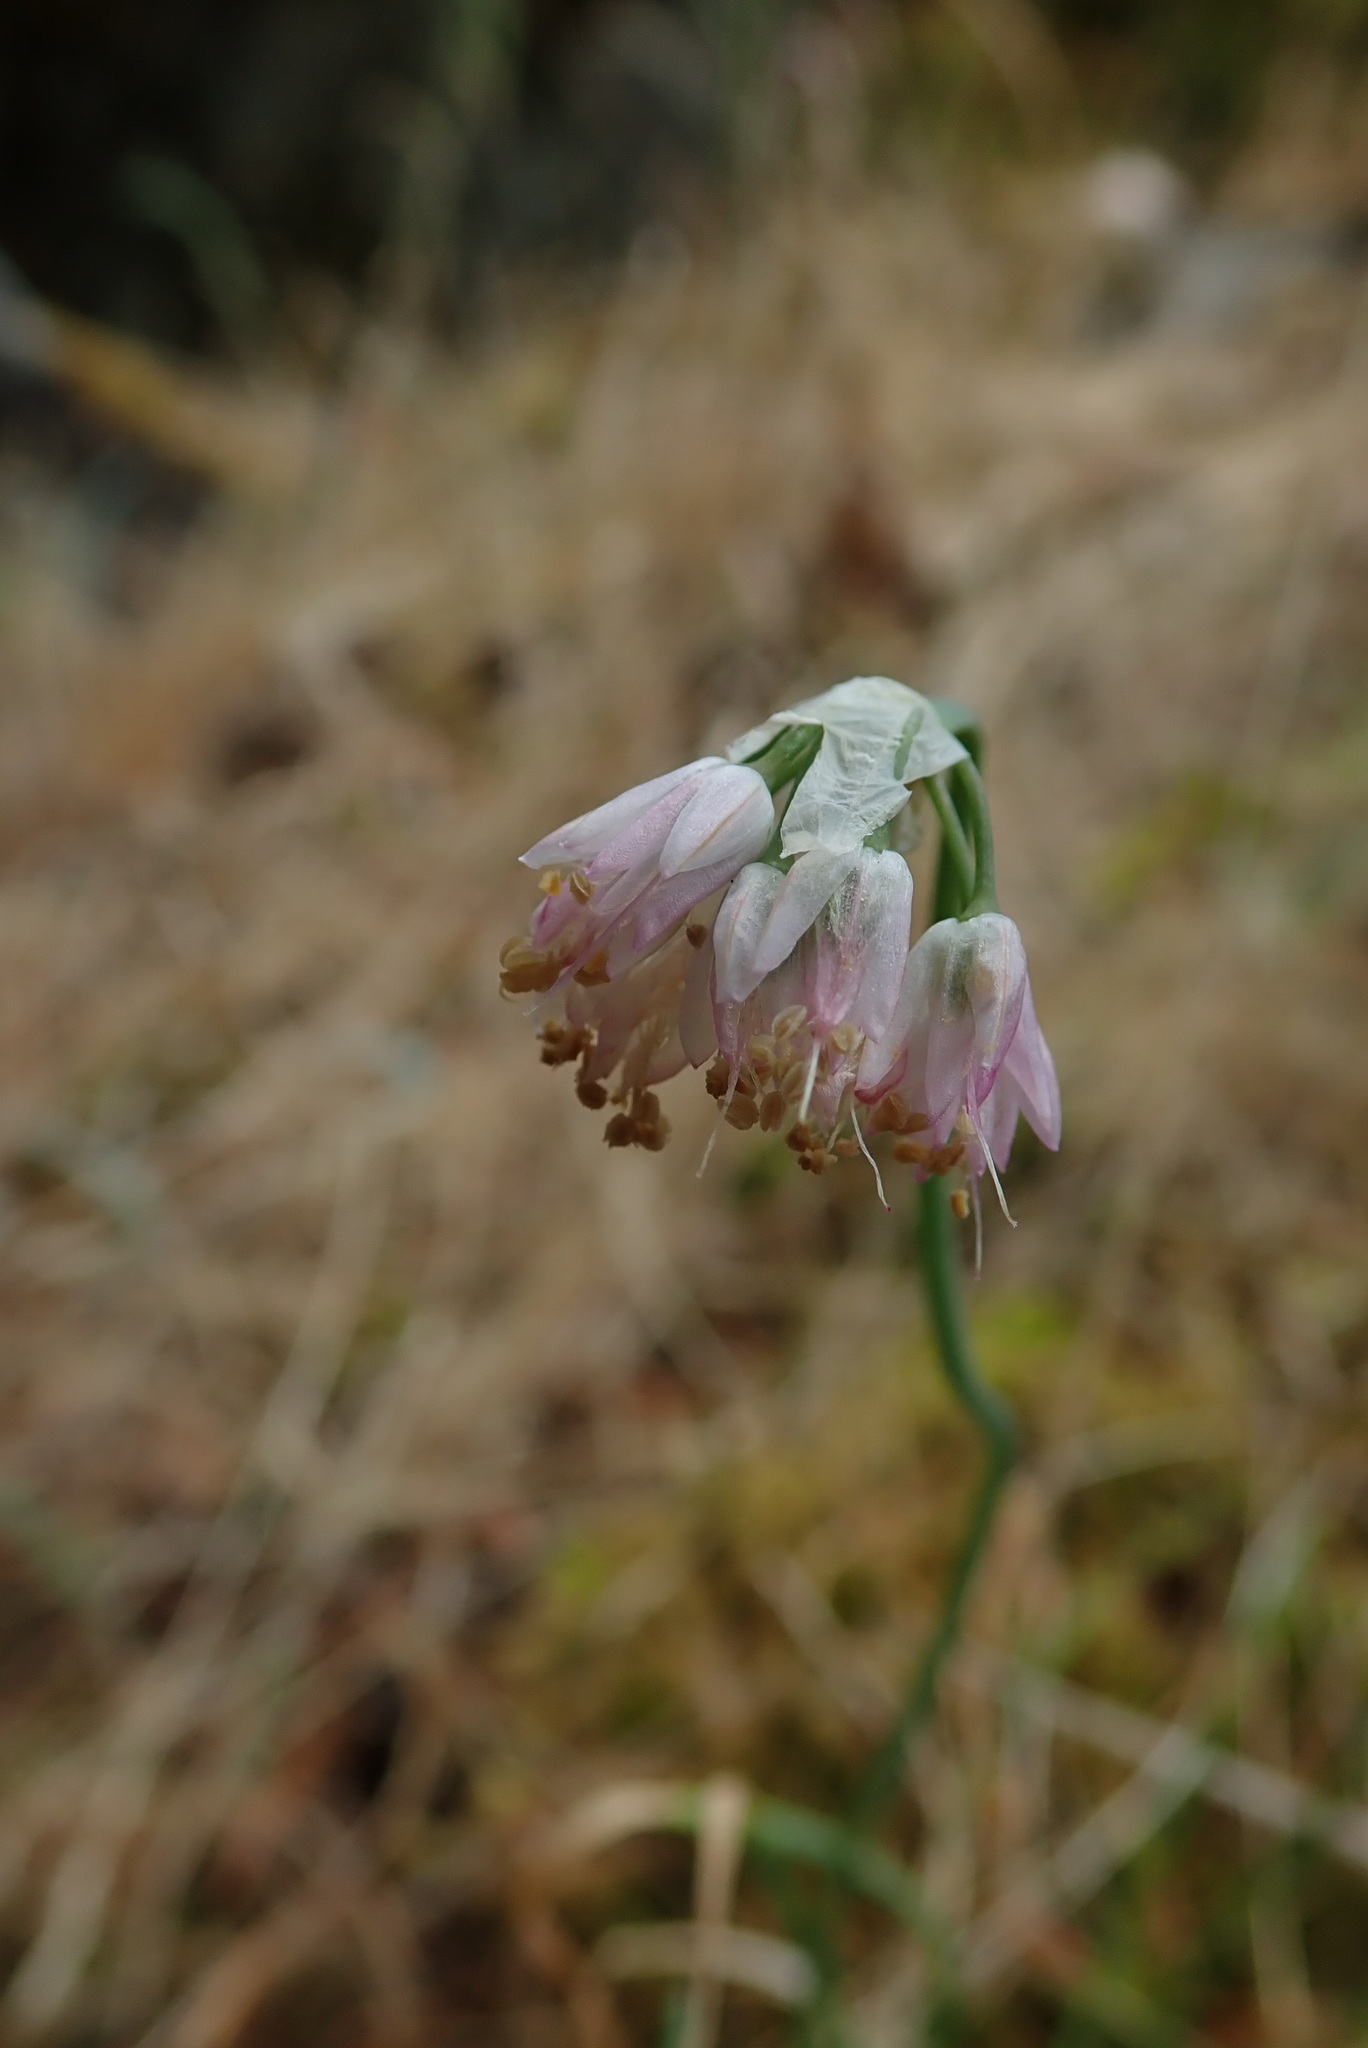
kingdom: Plantae
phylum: Tracheophyta
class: Liliopsida
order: Asparagales
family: Amaryllidaceae
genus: Allium
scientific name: Allium cernuum
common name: Nodding onion
